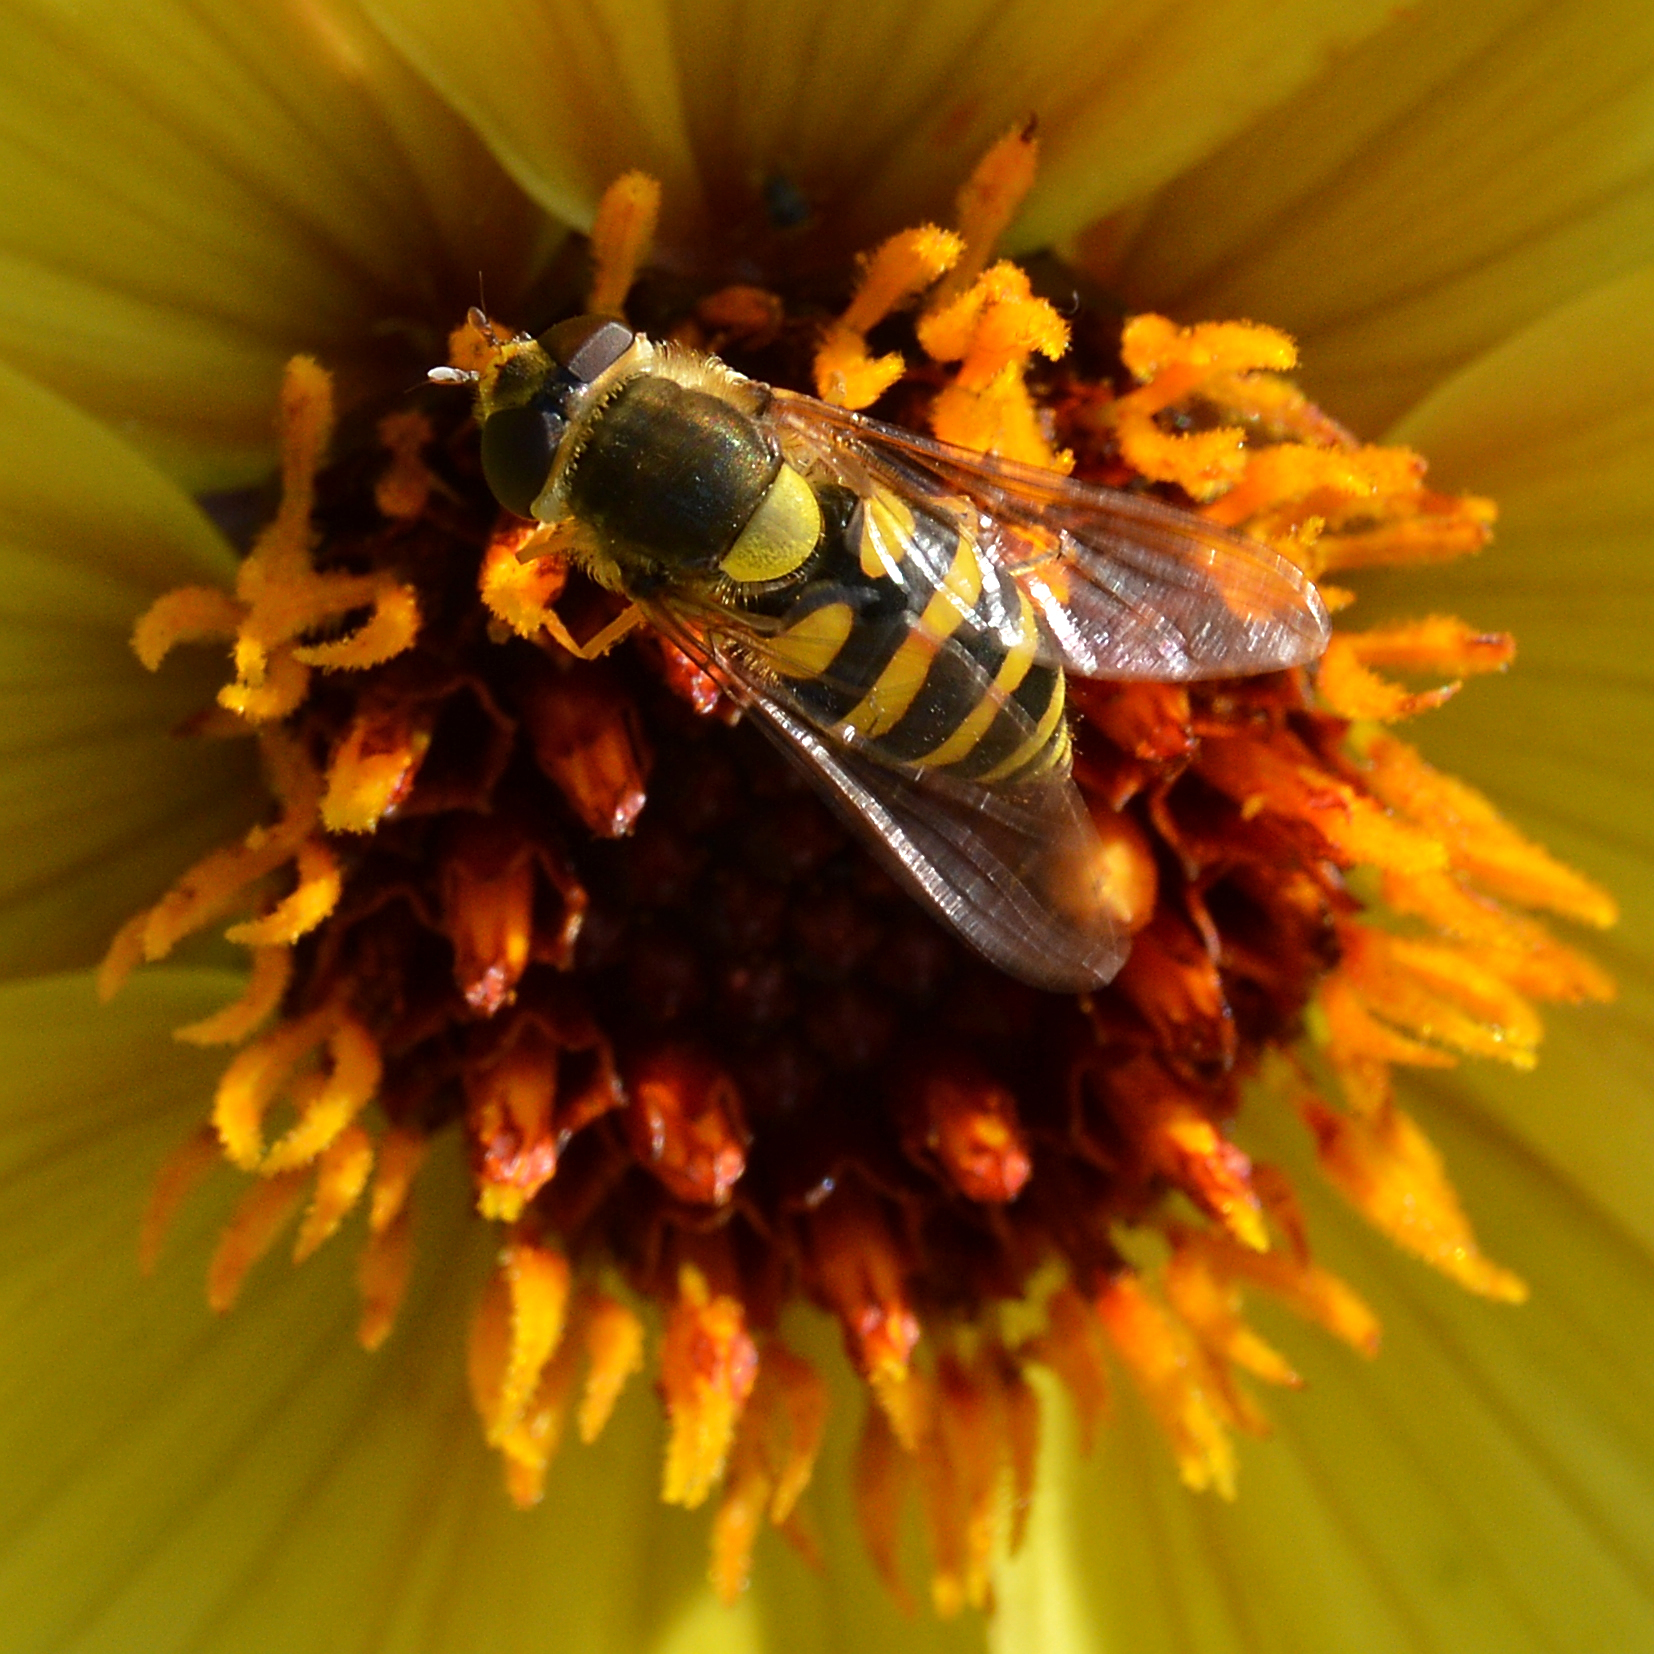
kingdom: Animalia
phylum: Arthropoda
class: Insecta
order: Diptera
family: Syrphidae
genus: Syrphus
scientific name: Syrphus
